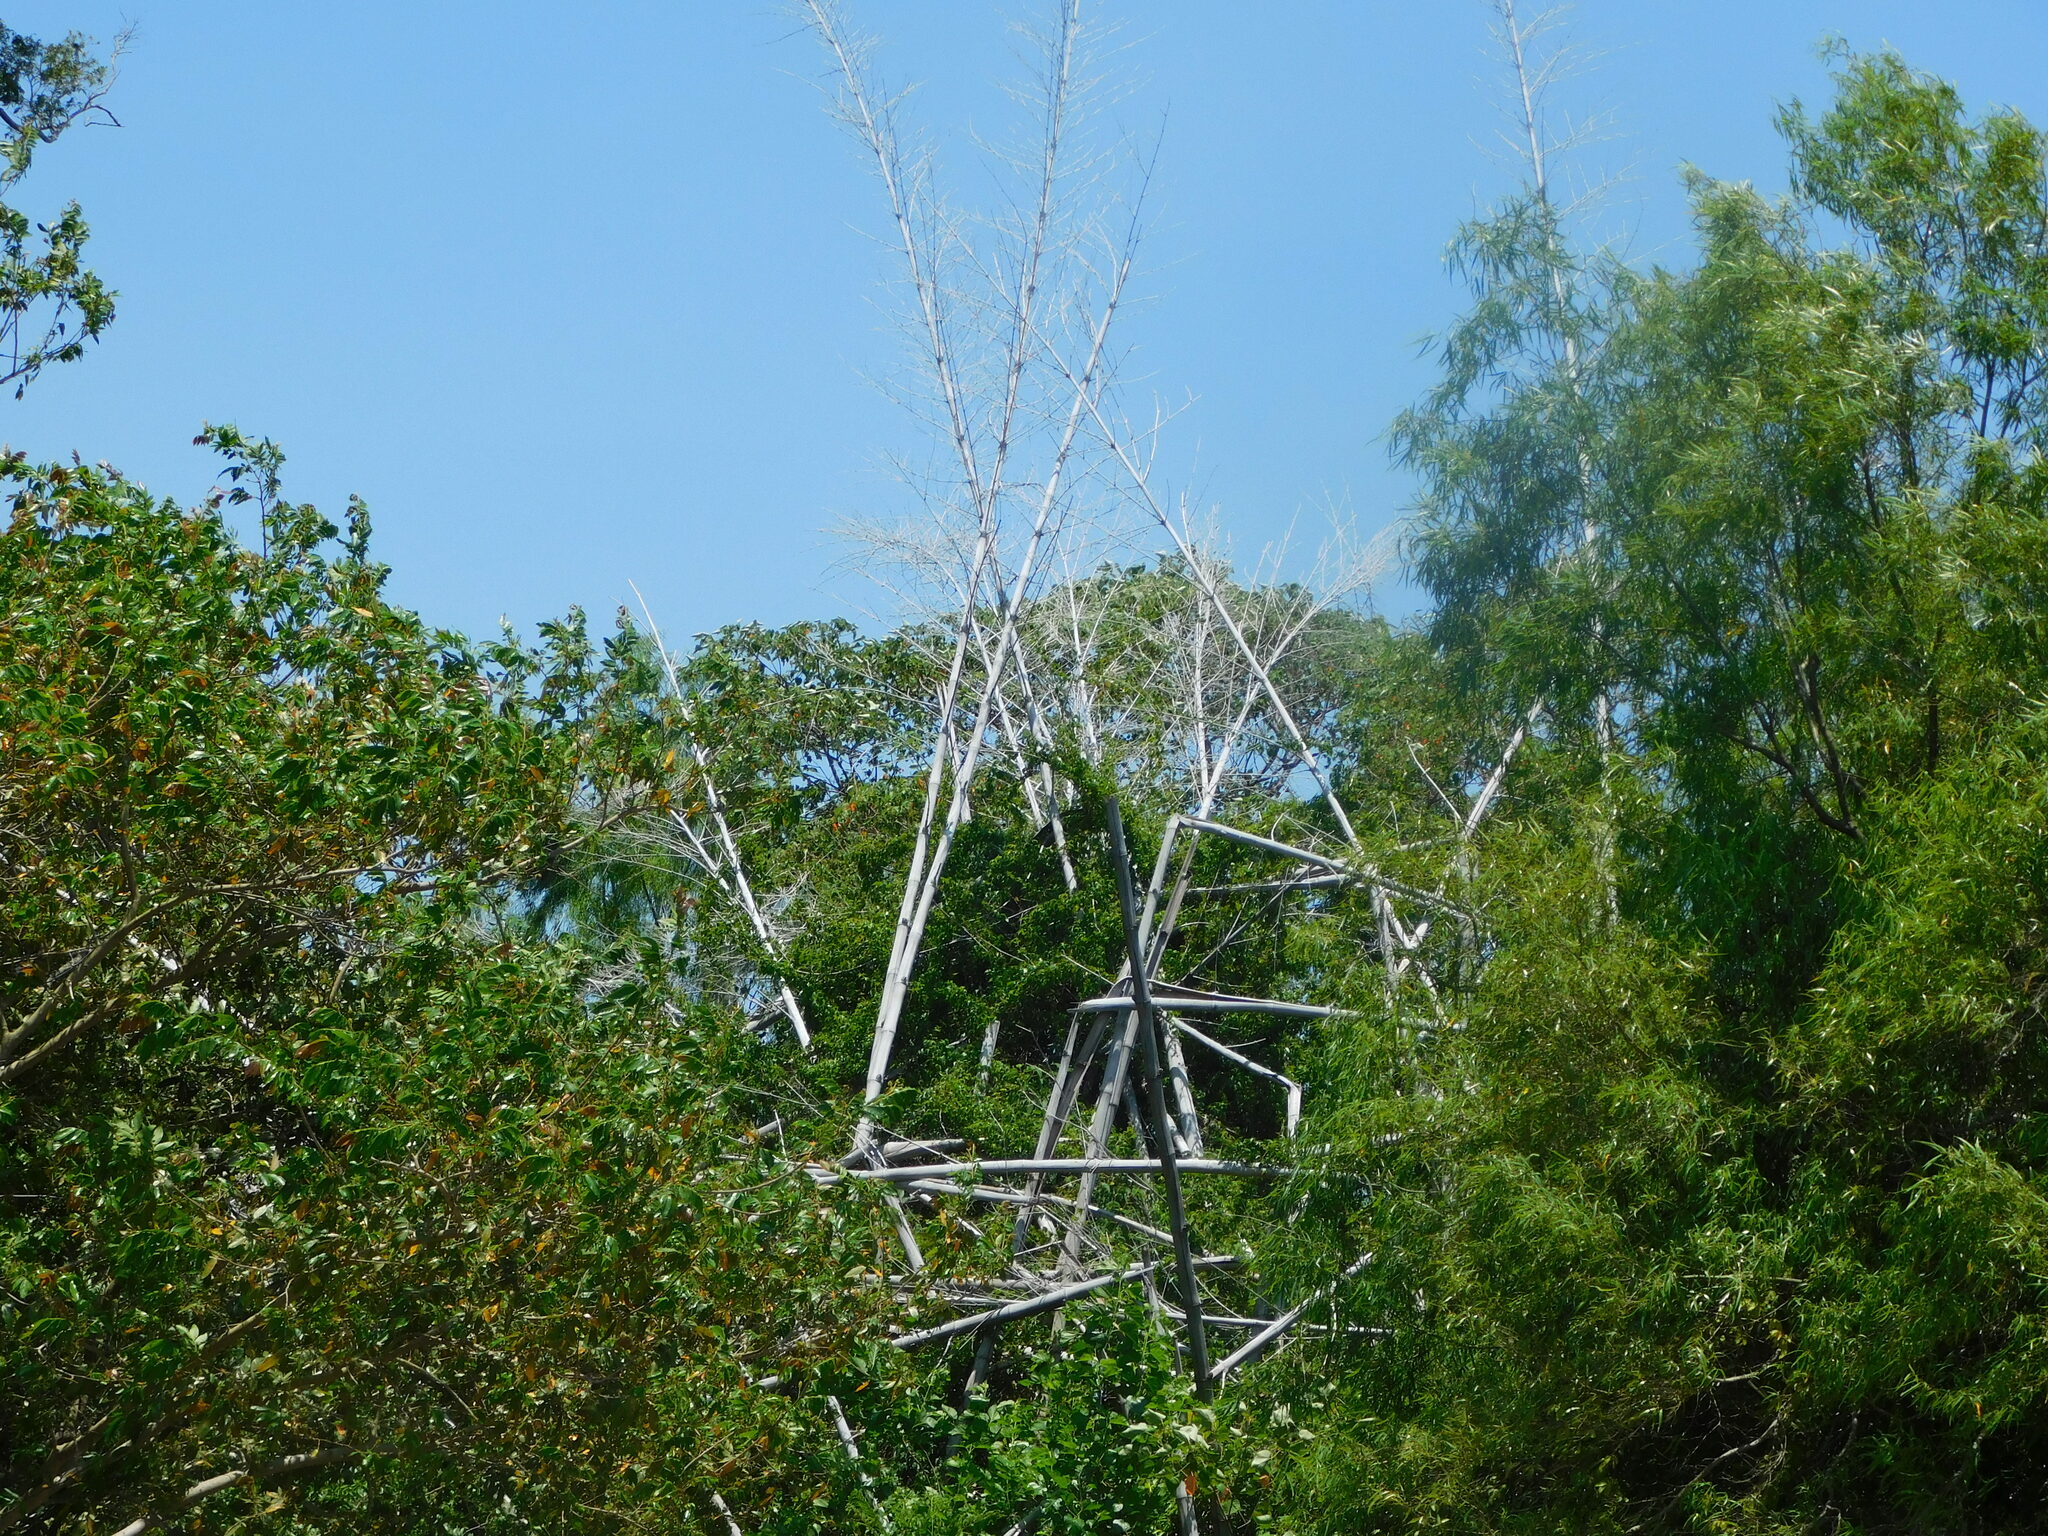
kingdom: Plantae
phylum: Tracheophyta
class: Liliopsida
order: Poales
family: Poaceae
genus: Guadua
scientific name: Guadua chacoensis
